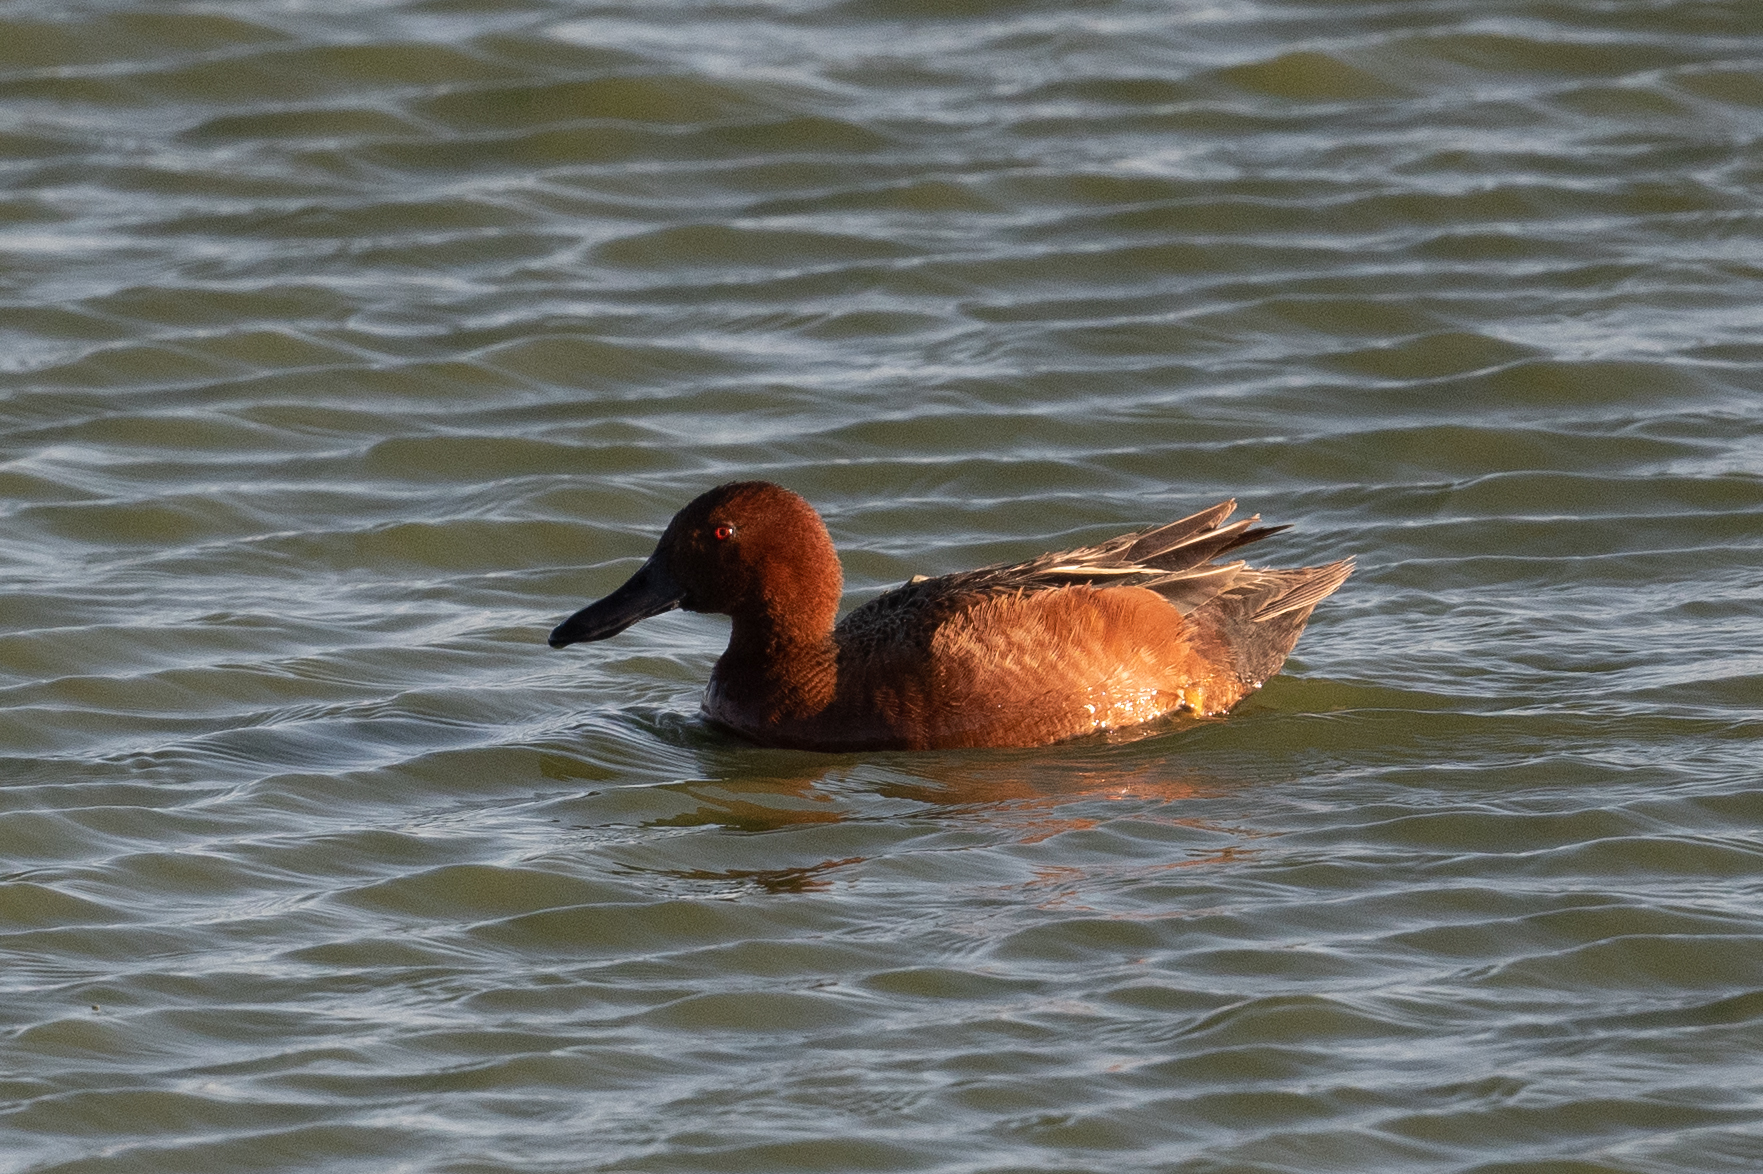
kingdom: Animalia
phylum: Chordata
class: Aves
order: Anseriformes
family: Anatidae
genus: Spatula
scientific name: Spatula cyanoptera
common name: Cinnamon teal
